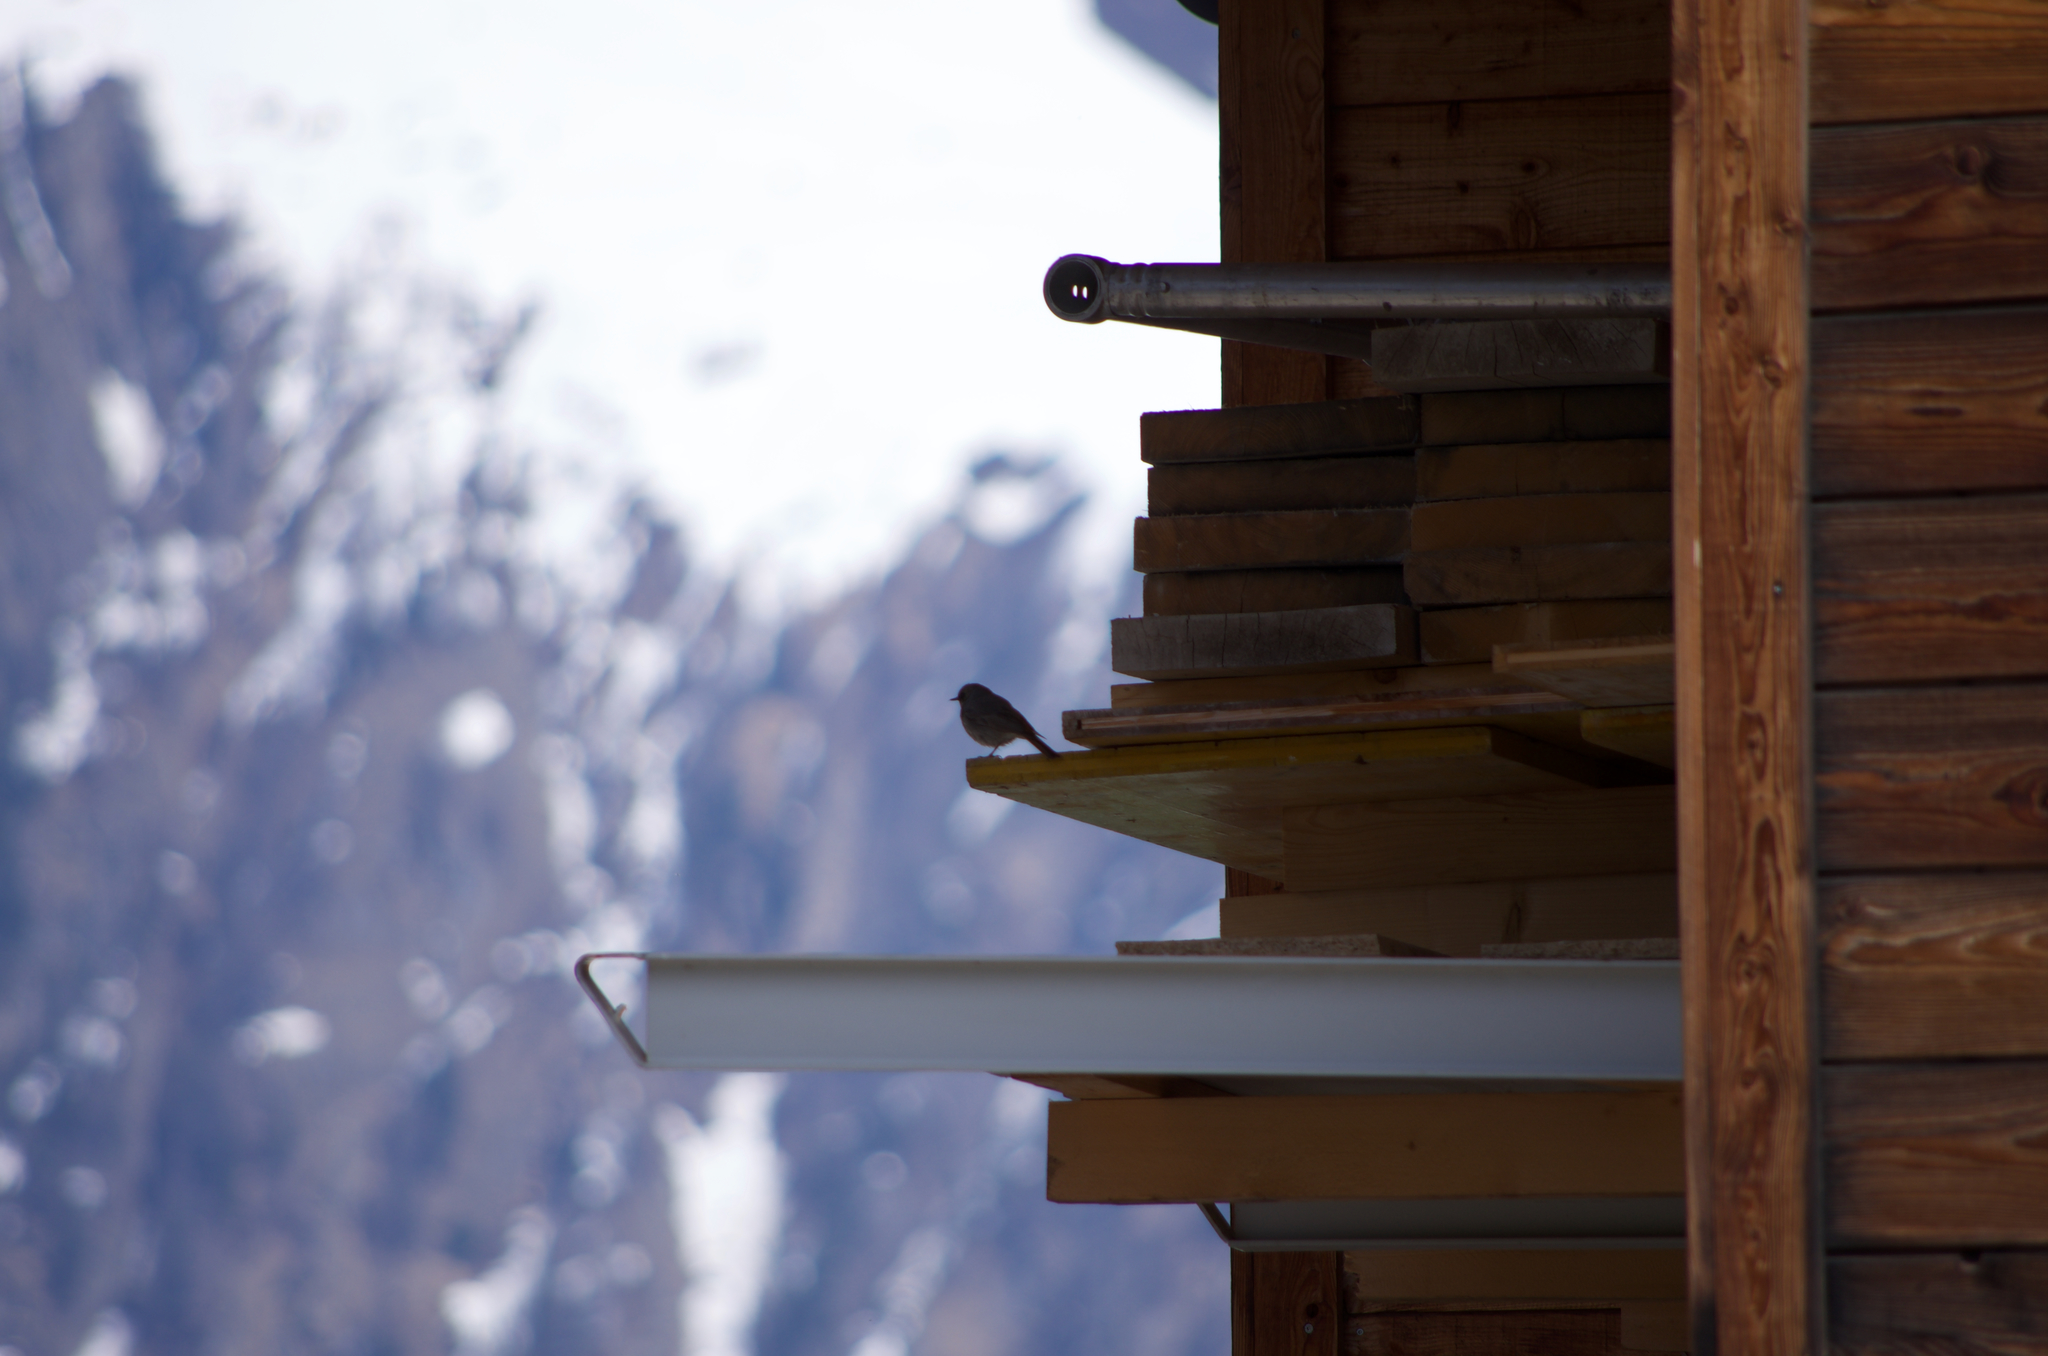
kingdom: Animalia
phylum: Chordata
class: Aves
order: Passeriformes
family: Muscicapidae
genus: Phoenicurus
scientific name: Phoenicurus ochruros
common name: Black redstart
